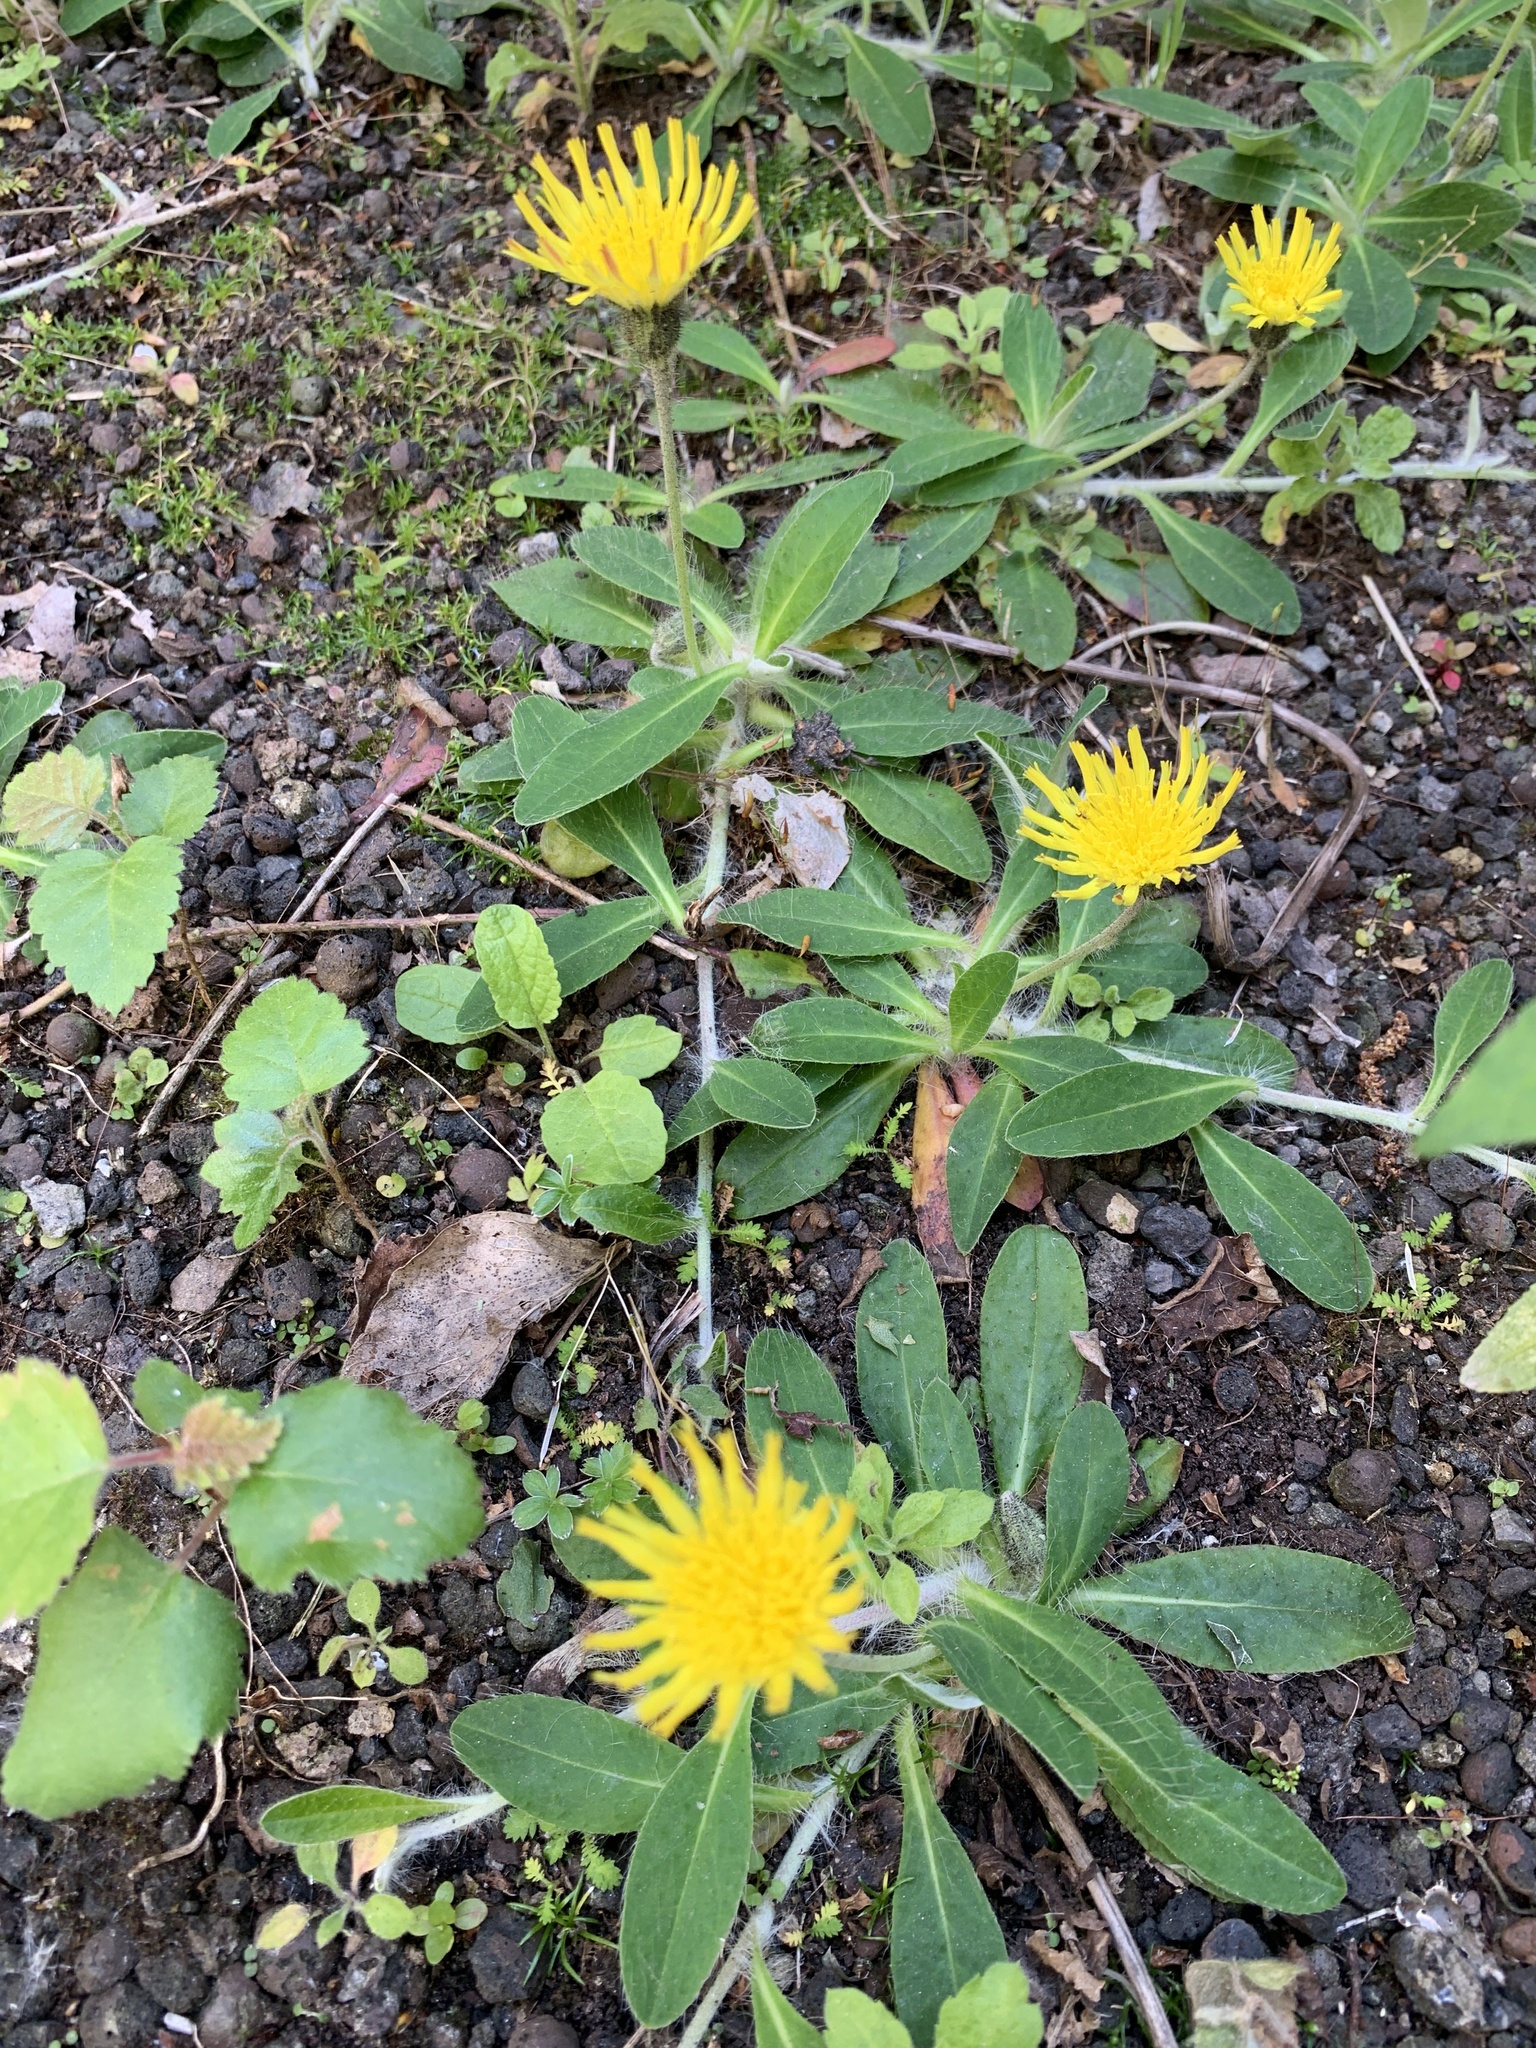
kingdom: Plantae
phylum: Tracheophyta
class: Magnoliopsida
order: Asterales
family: Asteraceae
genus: Pilosella
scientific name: Pilosella officinarum
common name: Mouse-ear hawkweed
